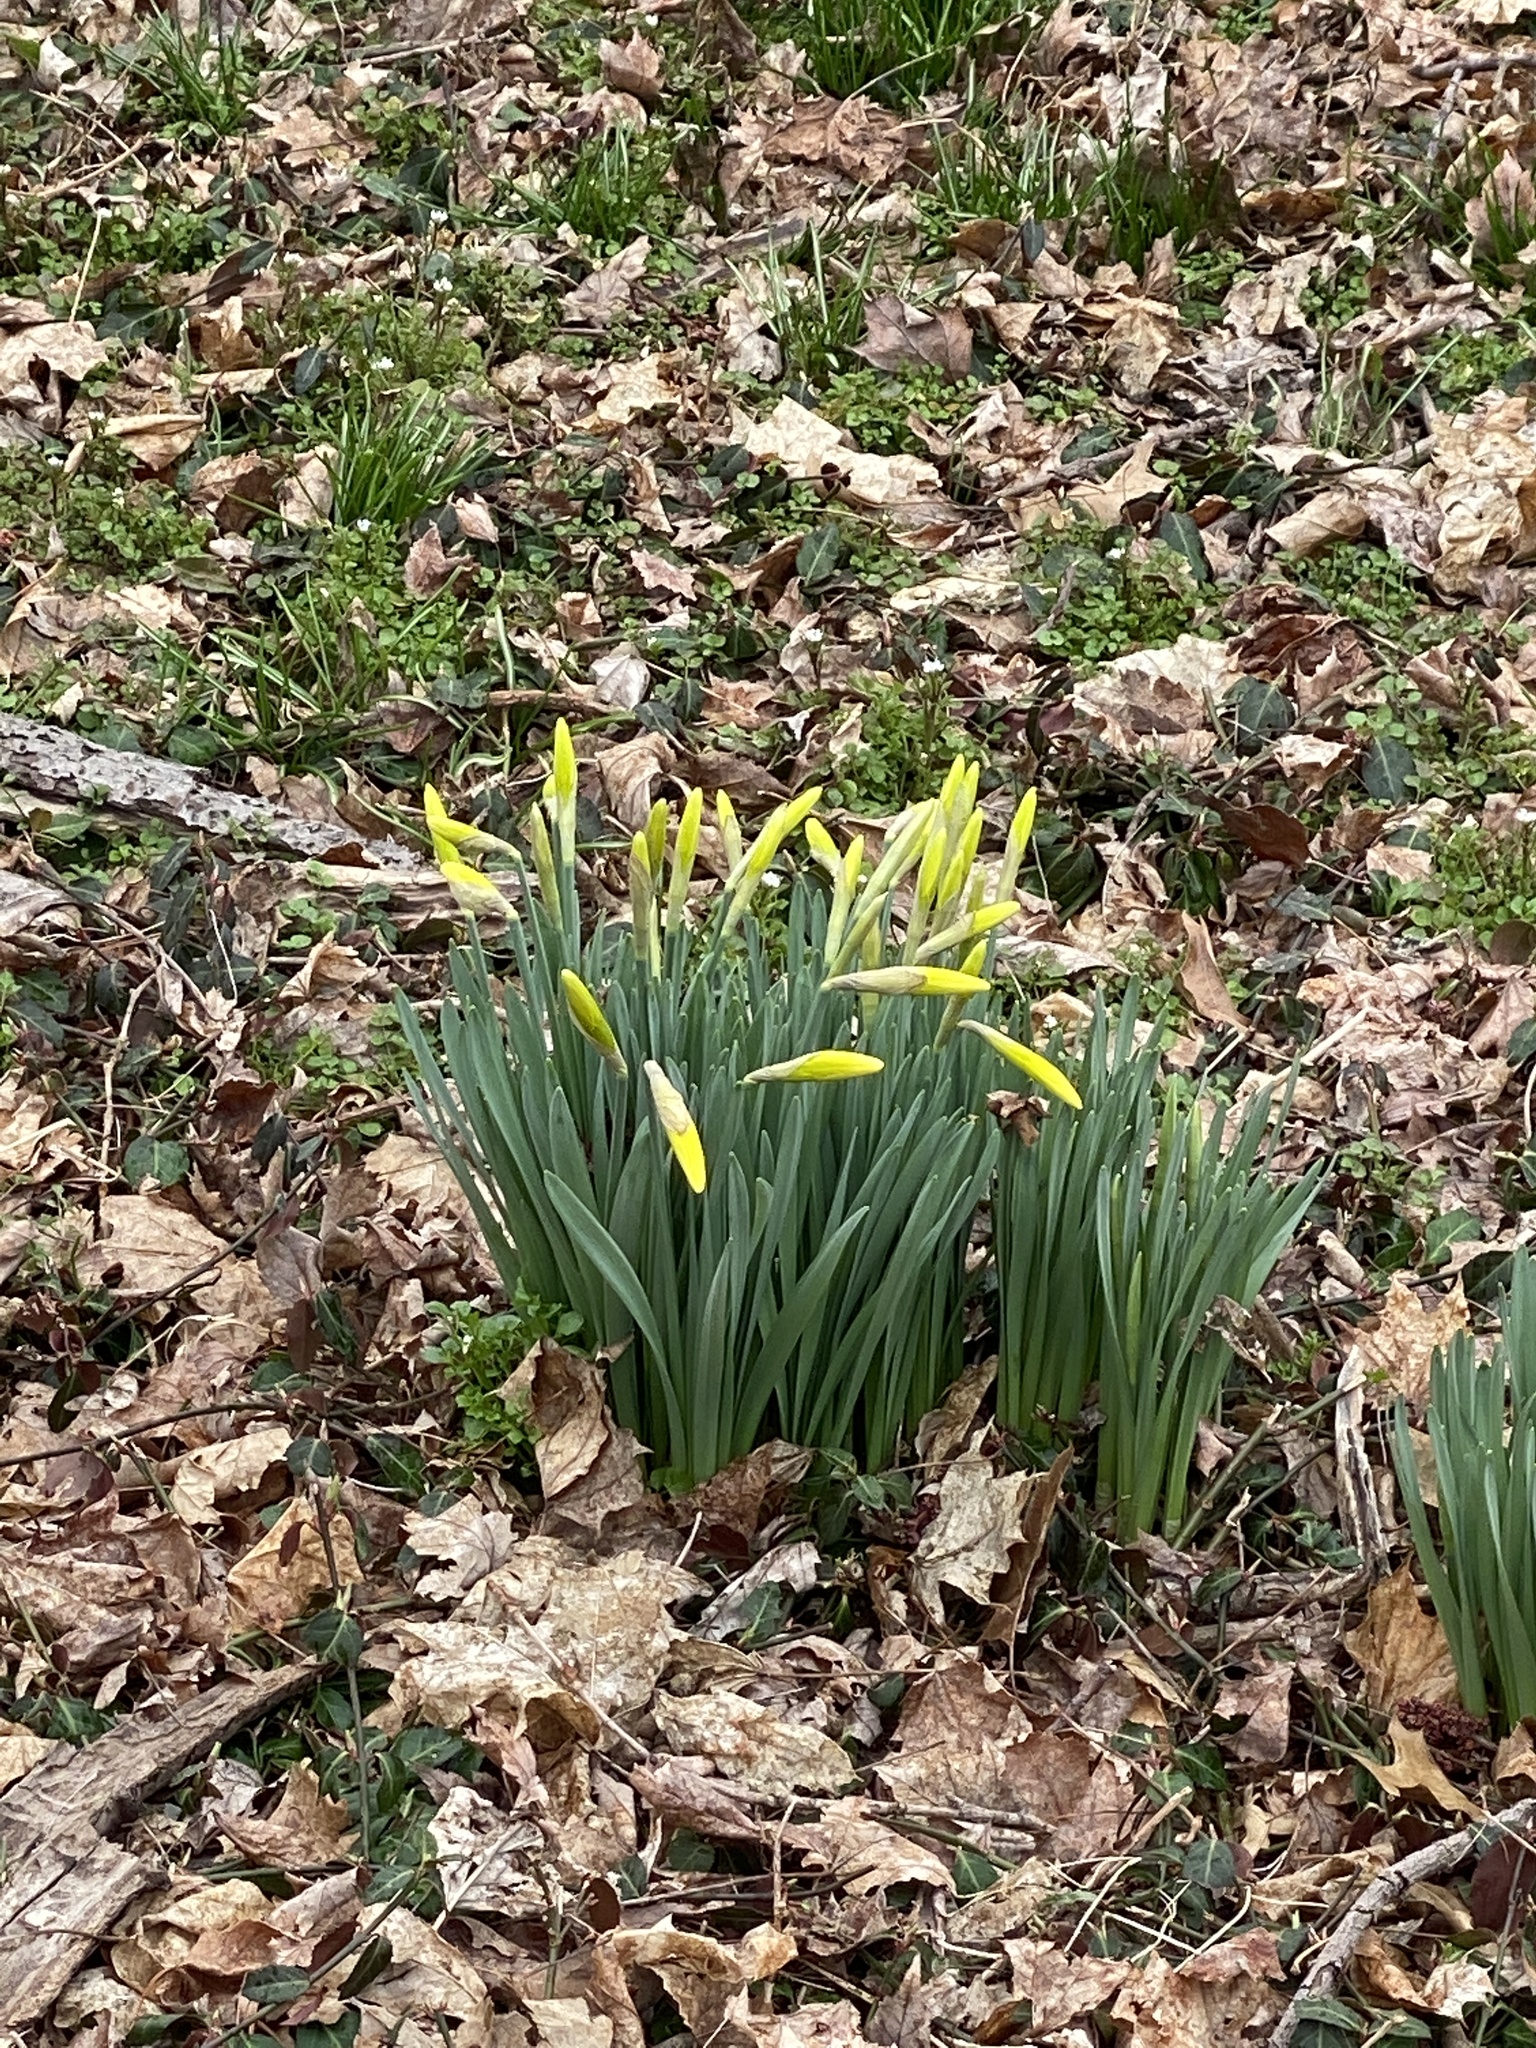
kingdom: Plantae
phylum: Tracheophyta
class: Liliopsida
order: Asparagales
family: Amaryllidaceae
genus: Narcissus
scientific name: Narcissus
